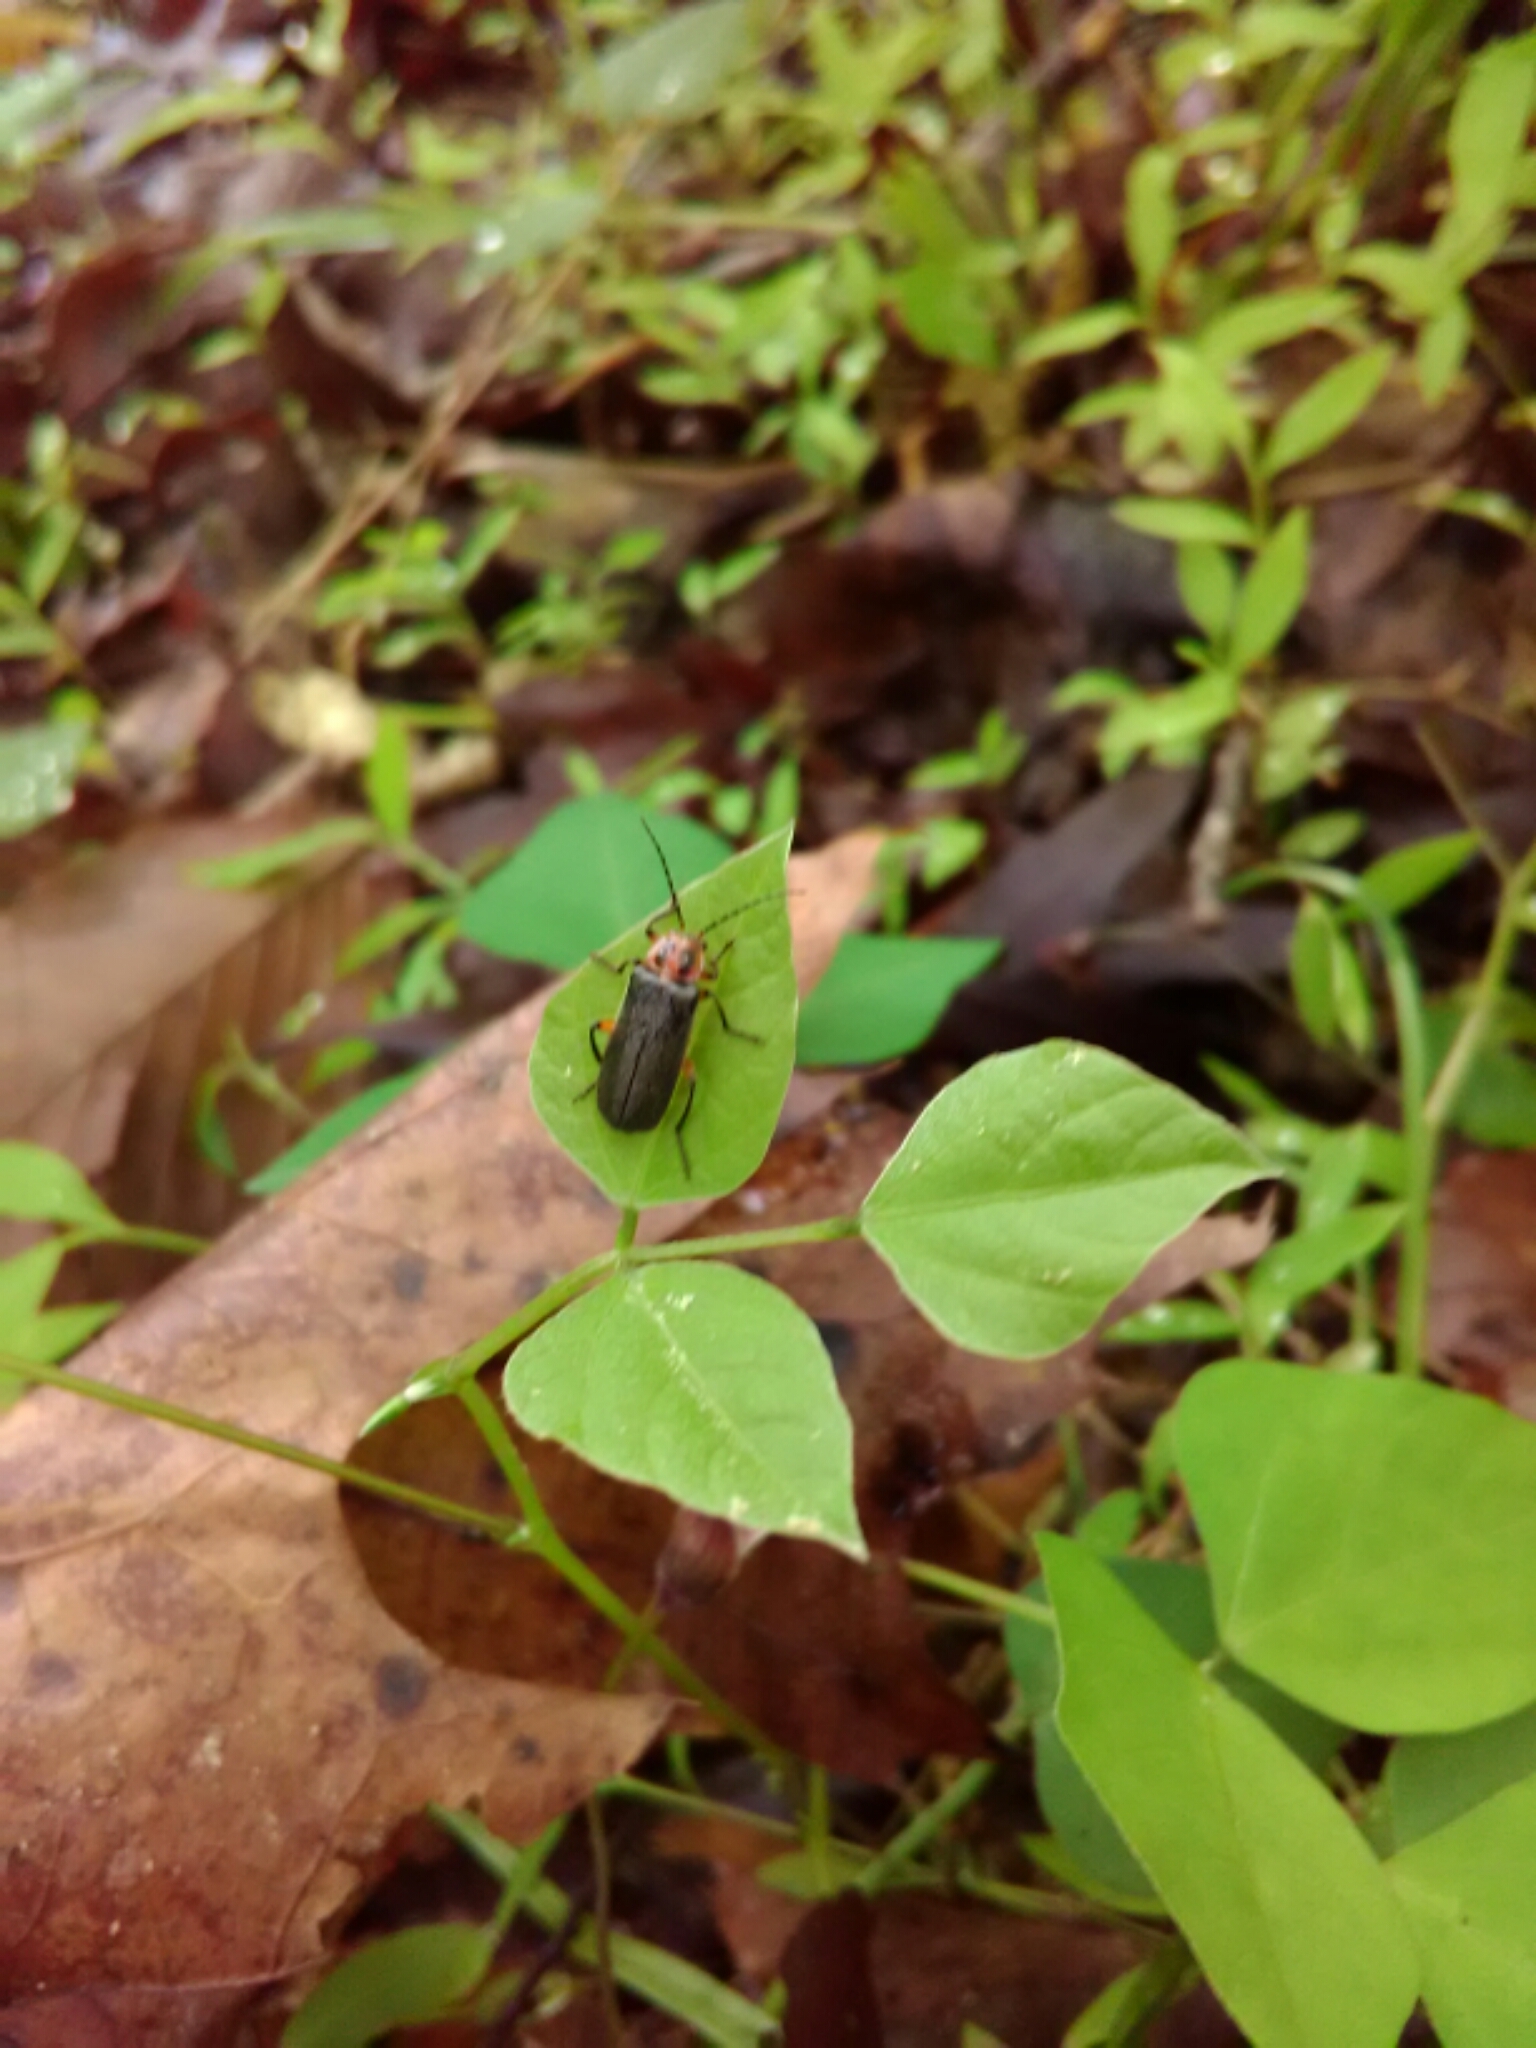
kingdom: Animalia
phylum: Arthropoda
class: Insecta
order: Coleoptera
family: Cantharidae
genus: Atalantycha
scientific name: Atalantycha bilineata
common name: Two-lined leatherwing
